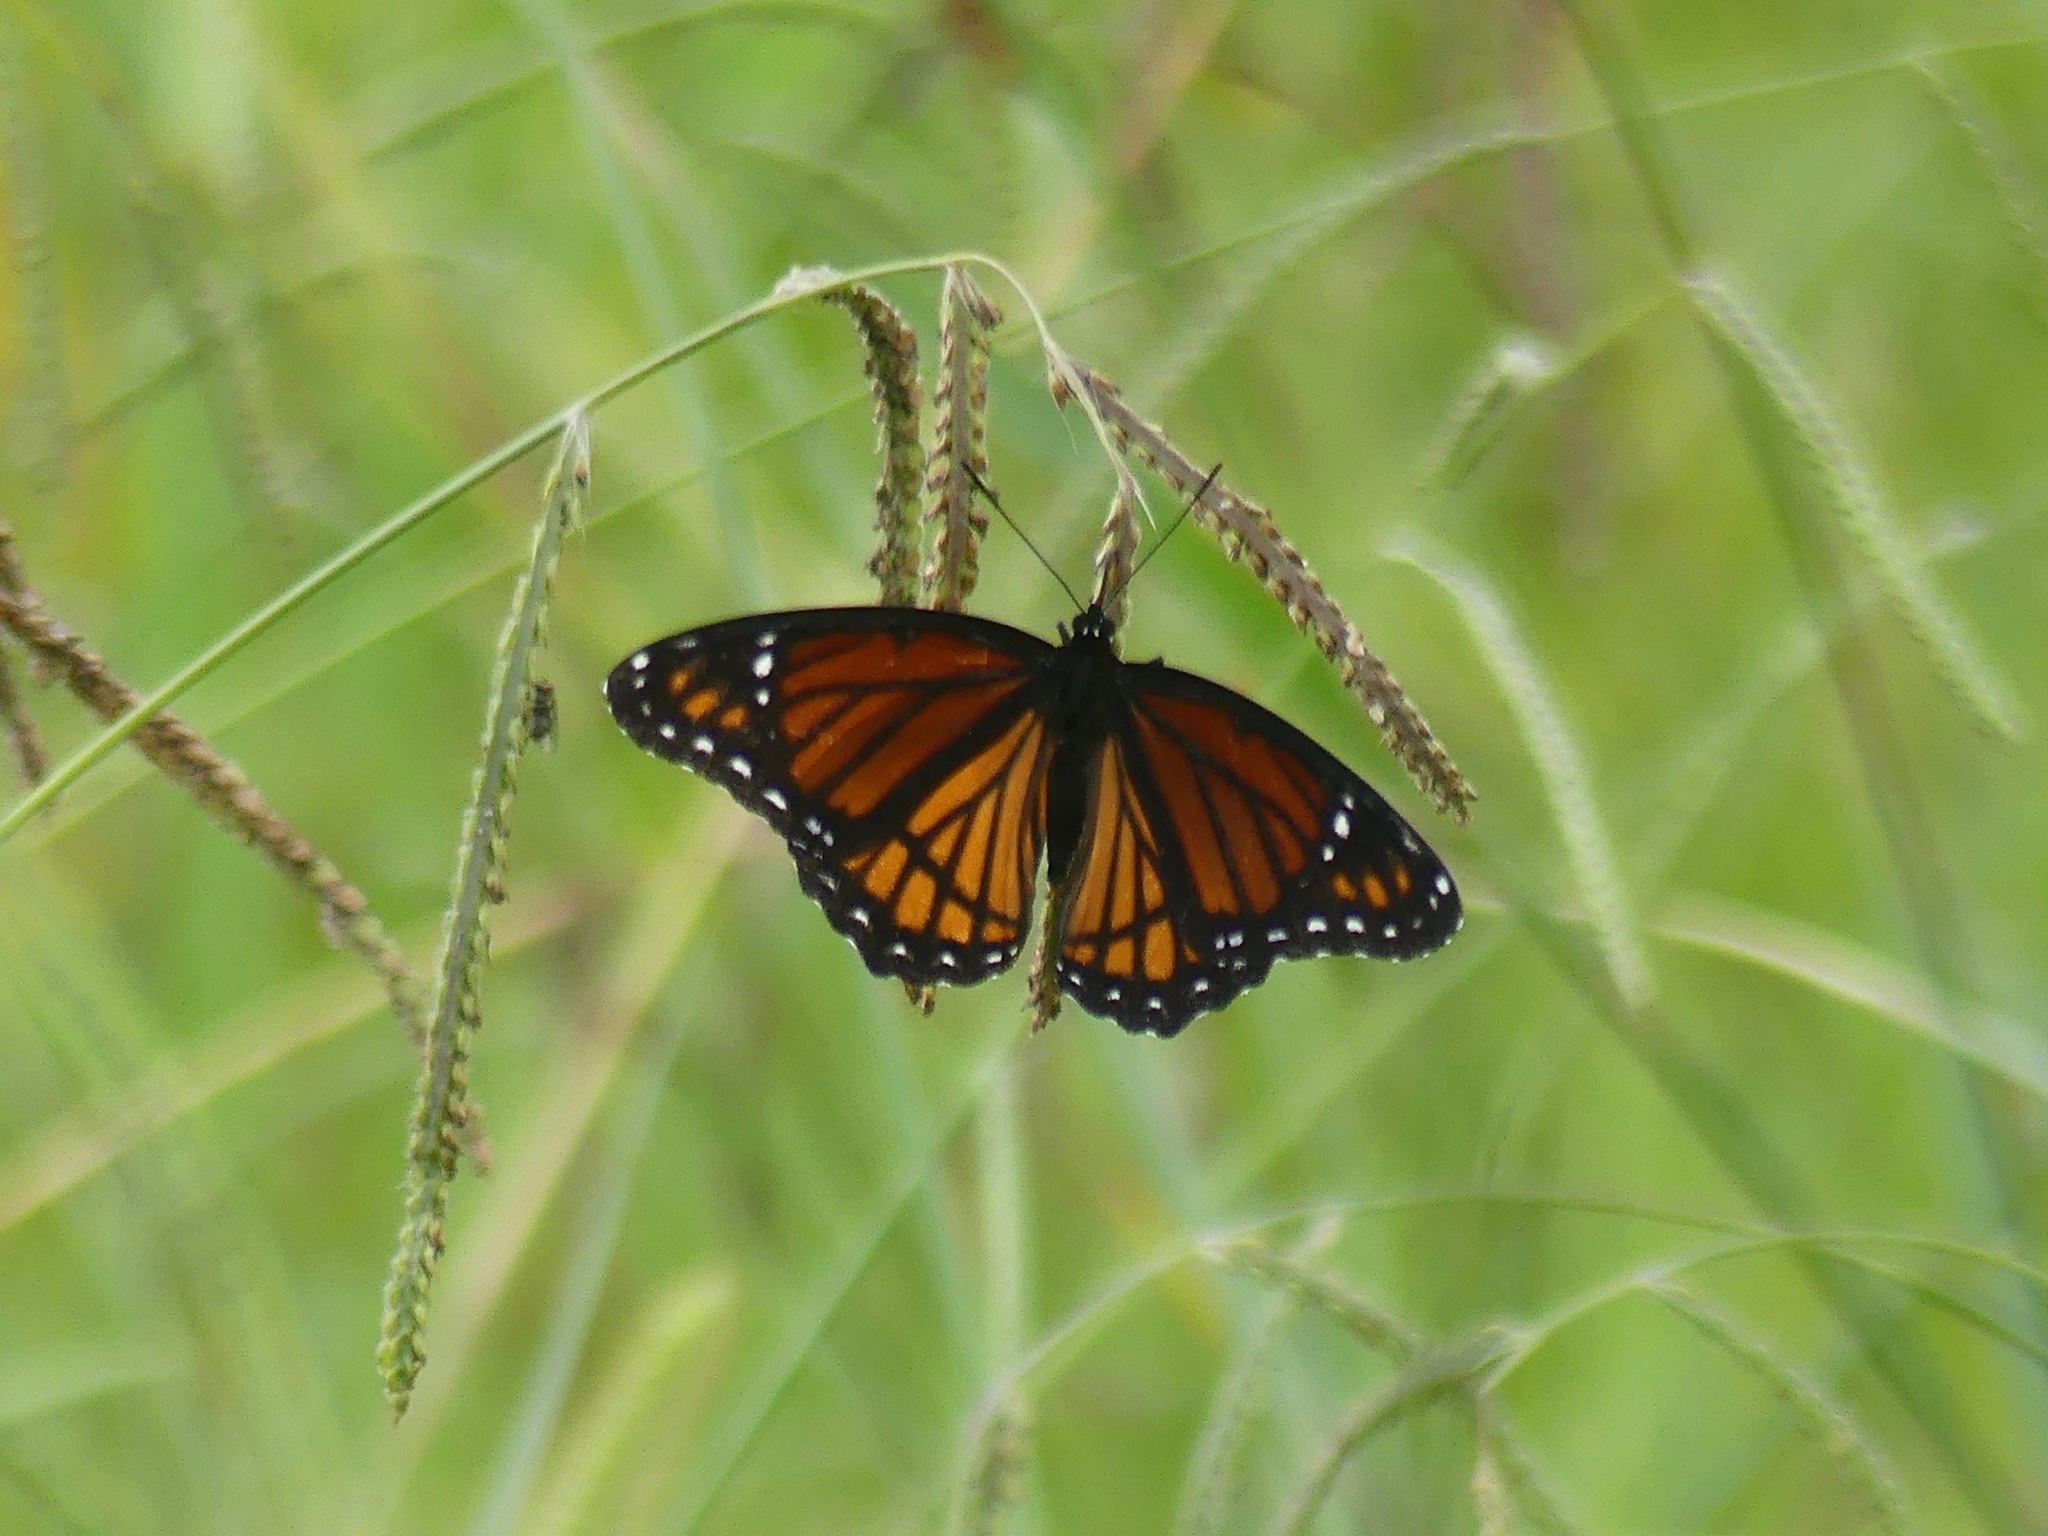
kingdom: Animalia
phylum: Arthropoda
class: Insecta
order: Lepidoptera
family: Nymphalidae
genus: Limenitis
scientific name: Limenitis archippus
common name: Viceroy
